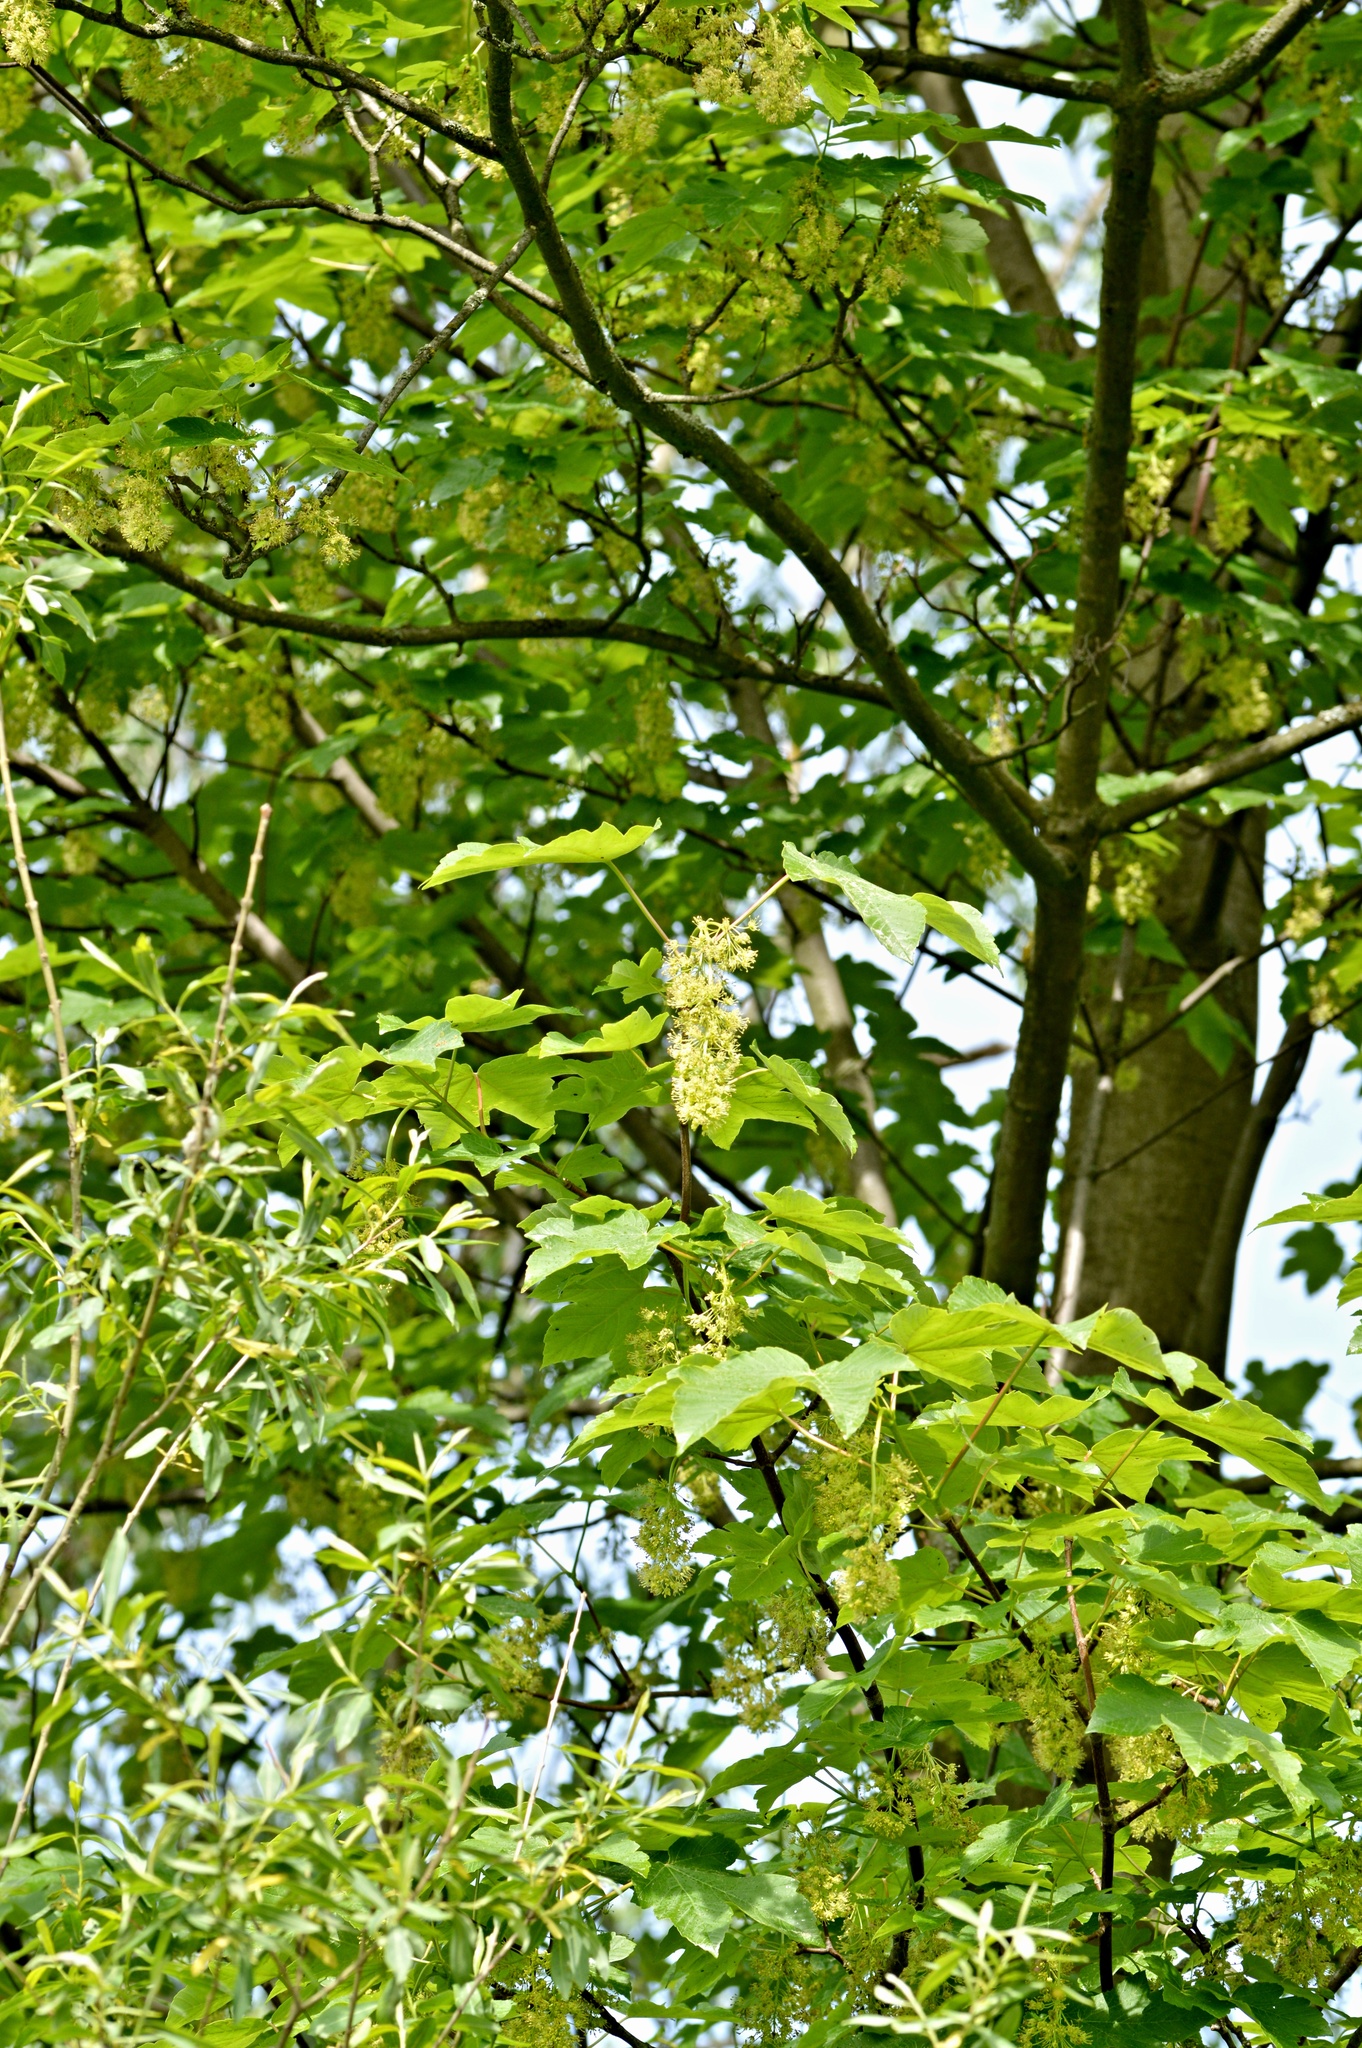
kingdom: Plantae
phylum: Tracheophyta
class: Magnoliopsida
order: Sapindales
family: Sapindaceae
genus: Acer
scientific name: Acer pseudoplatanus
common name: Sycamore
